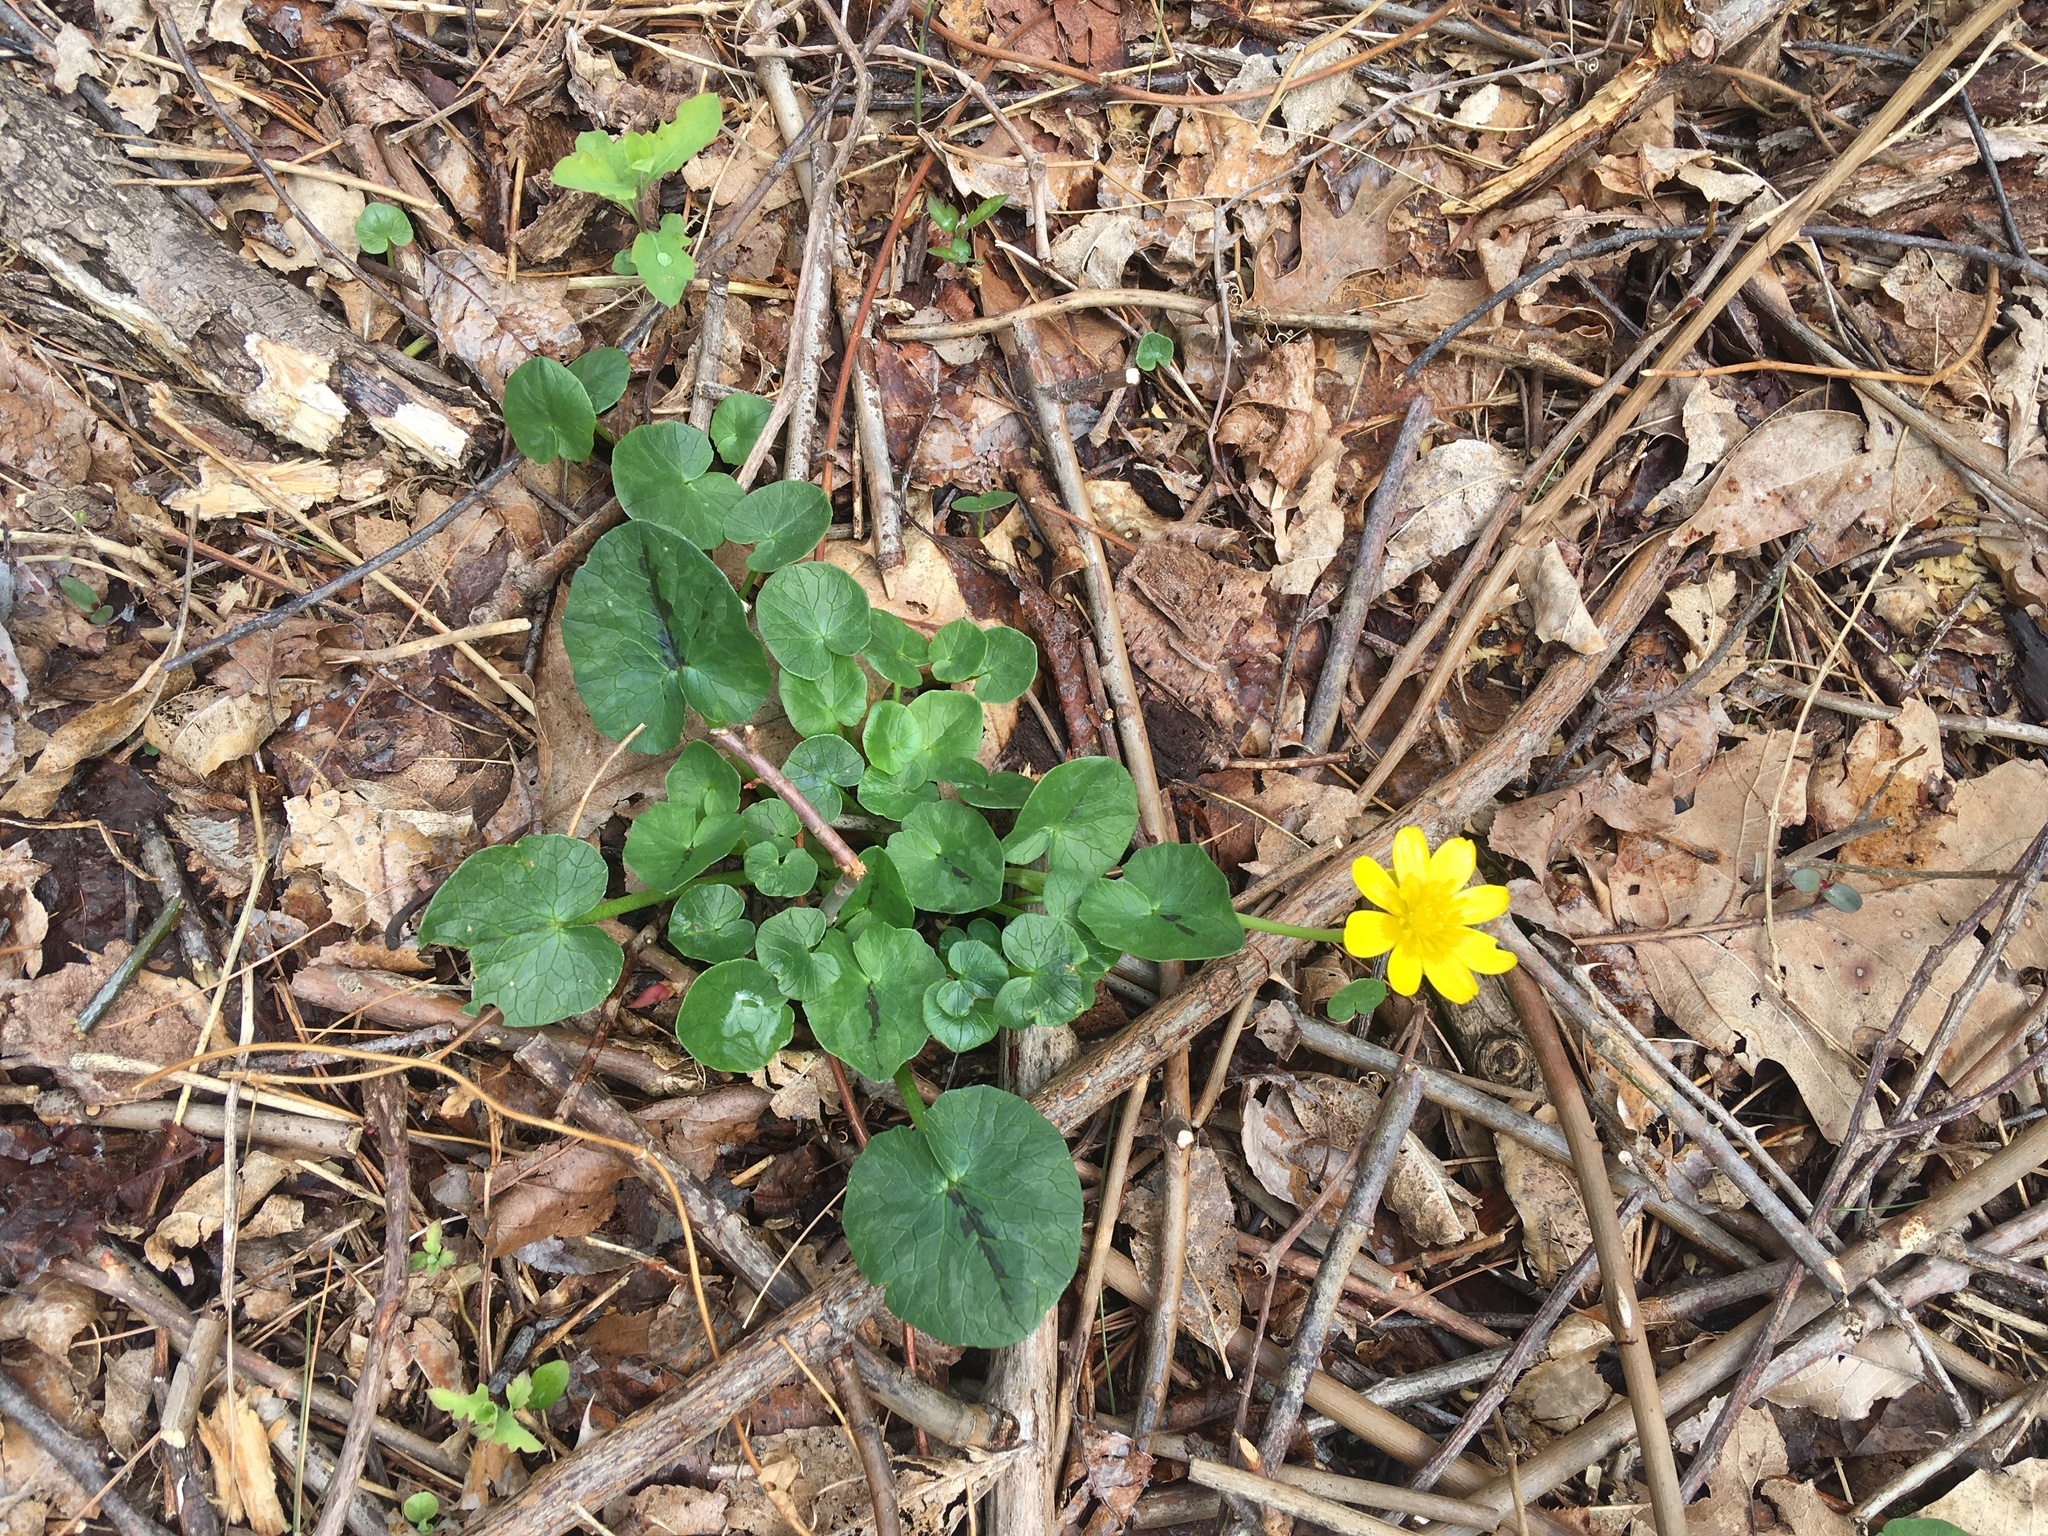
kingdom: Plantae
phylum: Tracheophyta
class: Magnoliopsida
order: Ranunculales
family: Ranunculaceae
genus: Ficaria
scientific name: Ficaria verna
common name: Lesser celandine
